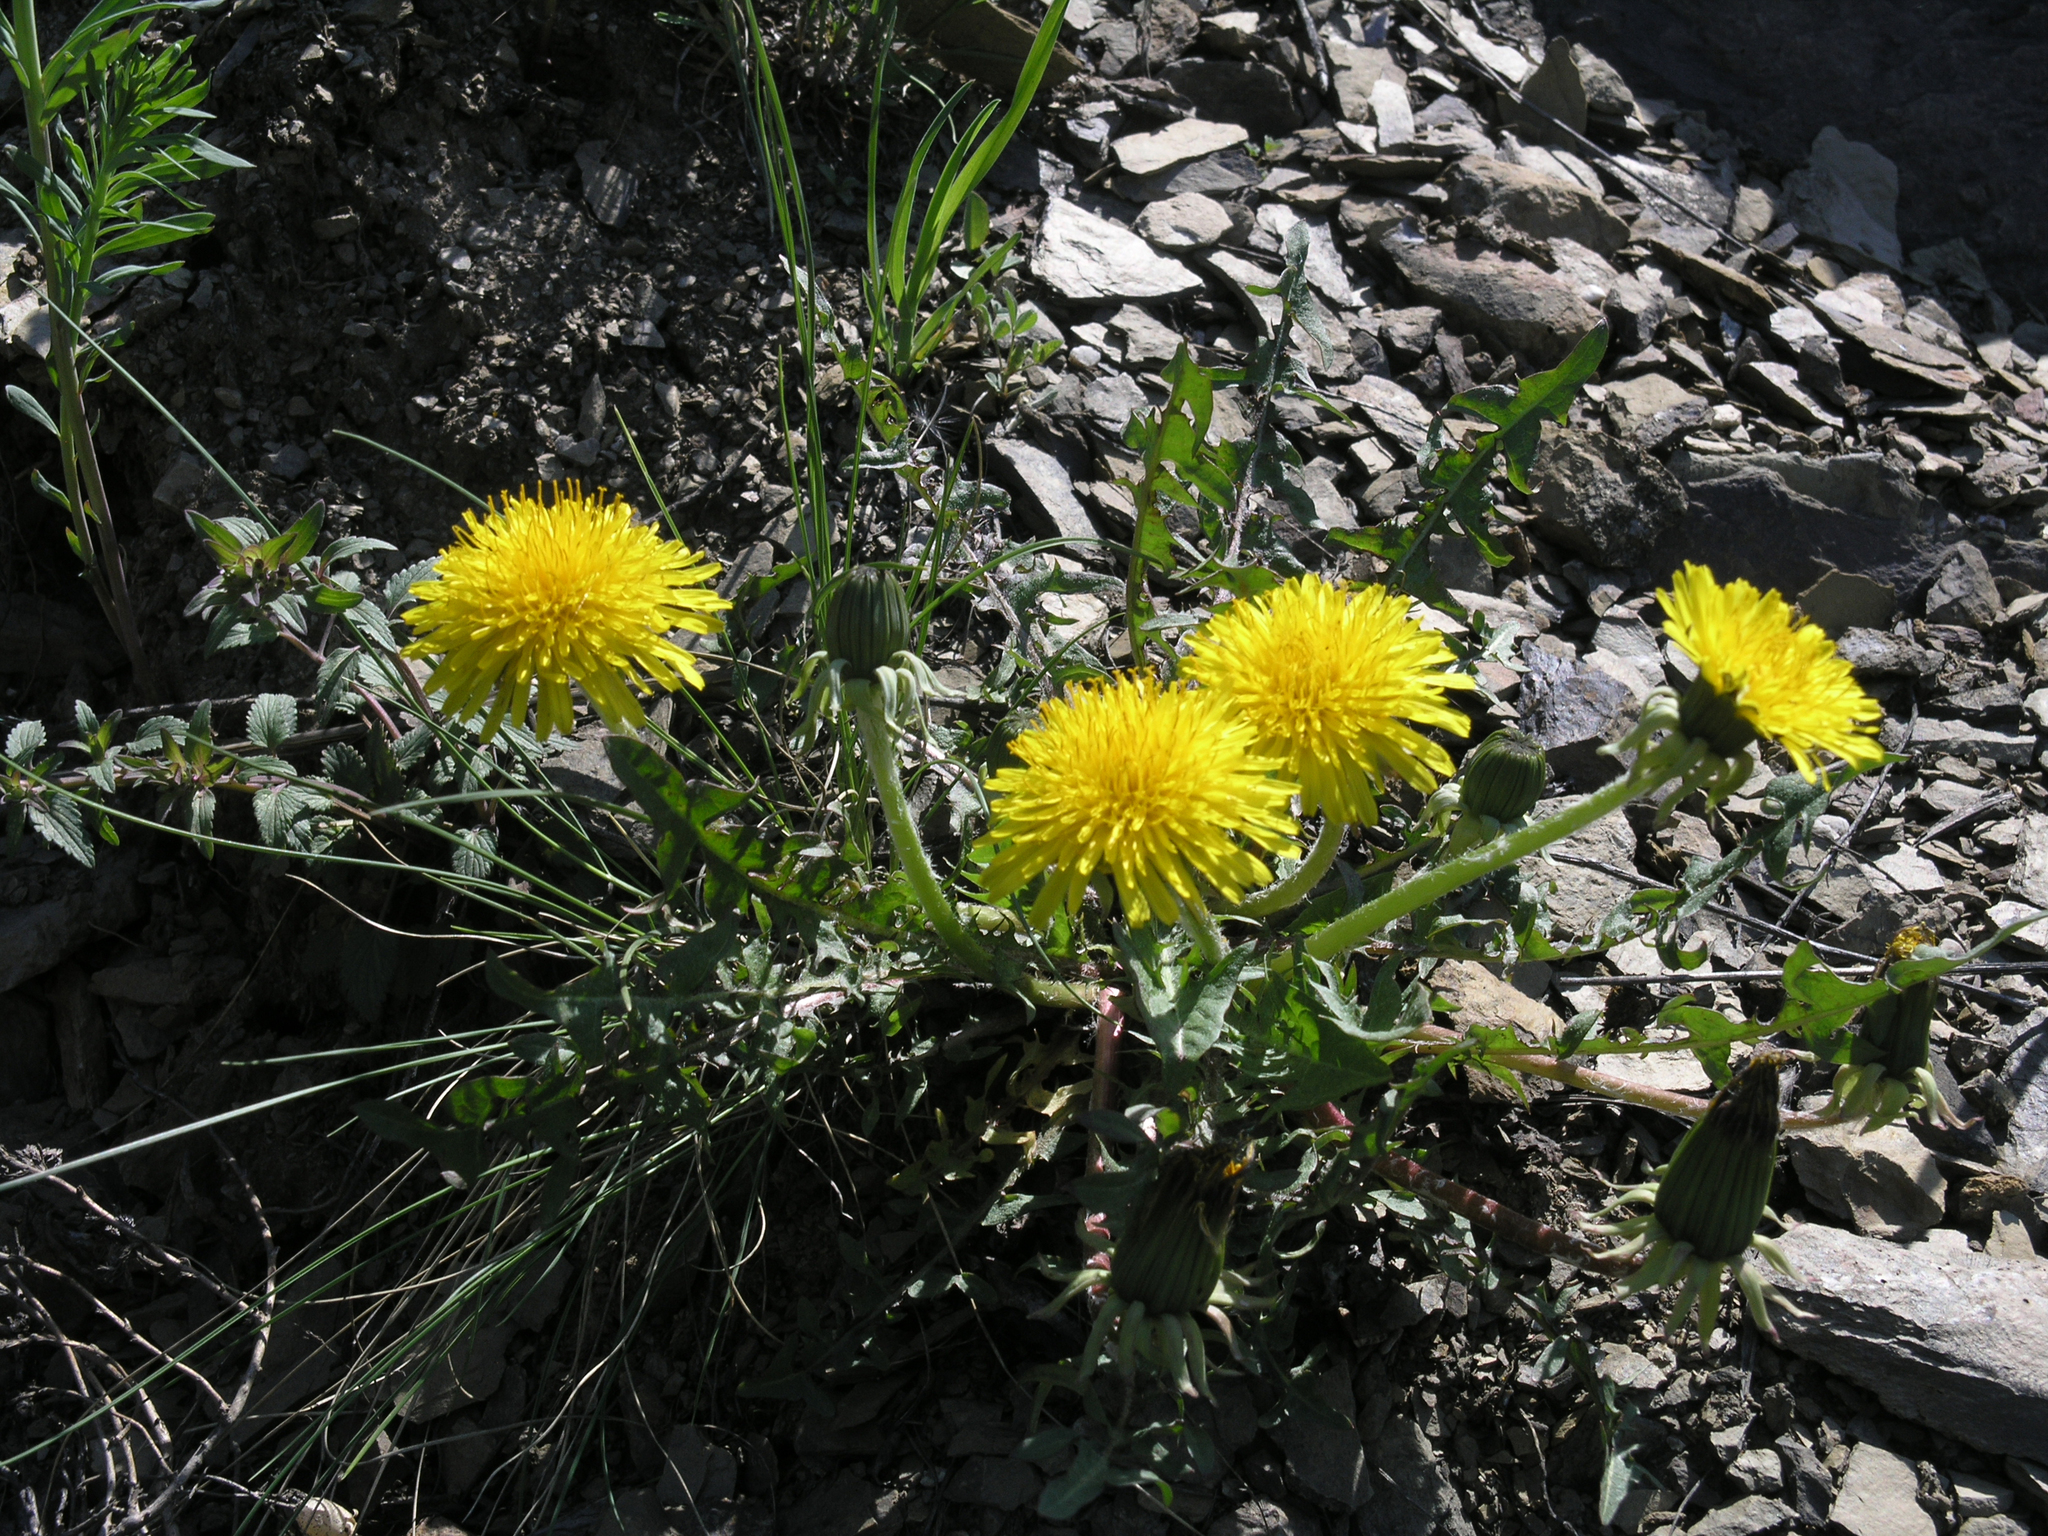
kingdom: Plantae
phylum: Tracheophyta
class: Magnoliopsida
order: Asterales
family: Asteraceae
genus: Taraxacum
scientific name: Taraxacum officinale
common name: Common dandelion
